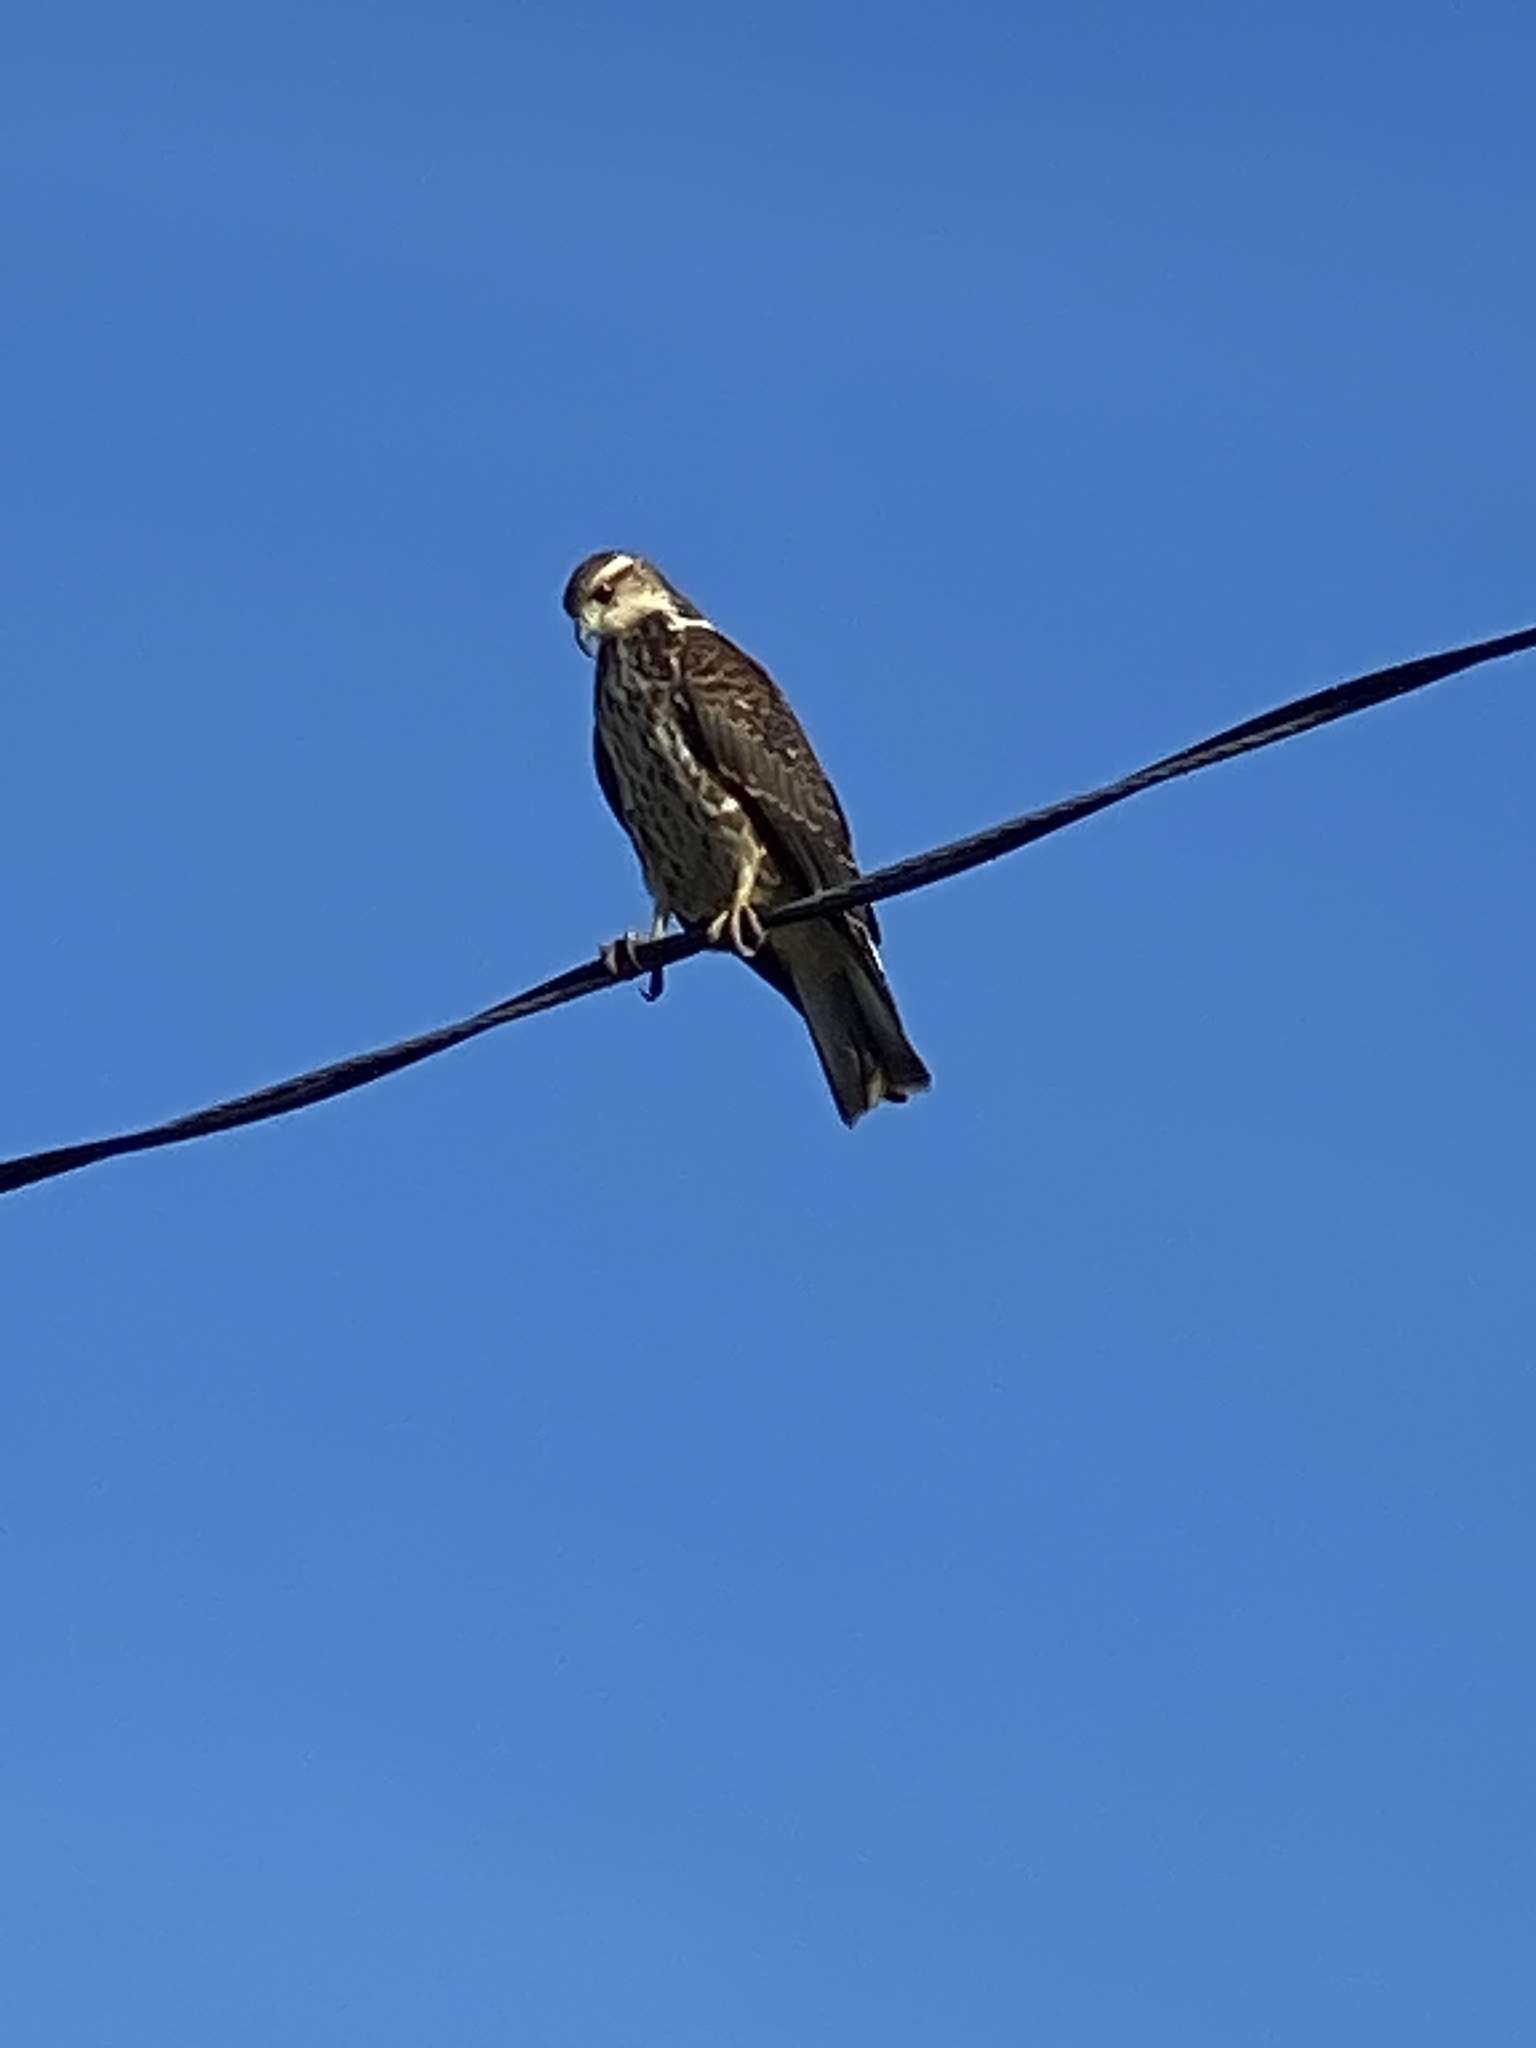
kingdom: Animalia
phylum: Chordata
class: Aves
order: Accipitriformes
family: Accipitridae
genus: Rostrhamus
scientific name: Rostrhamus sociabilis
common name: Snail kite
